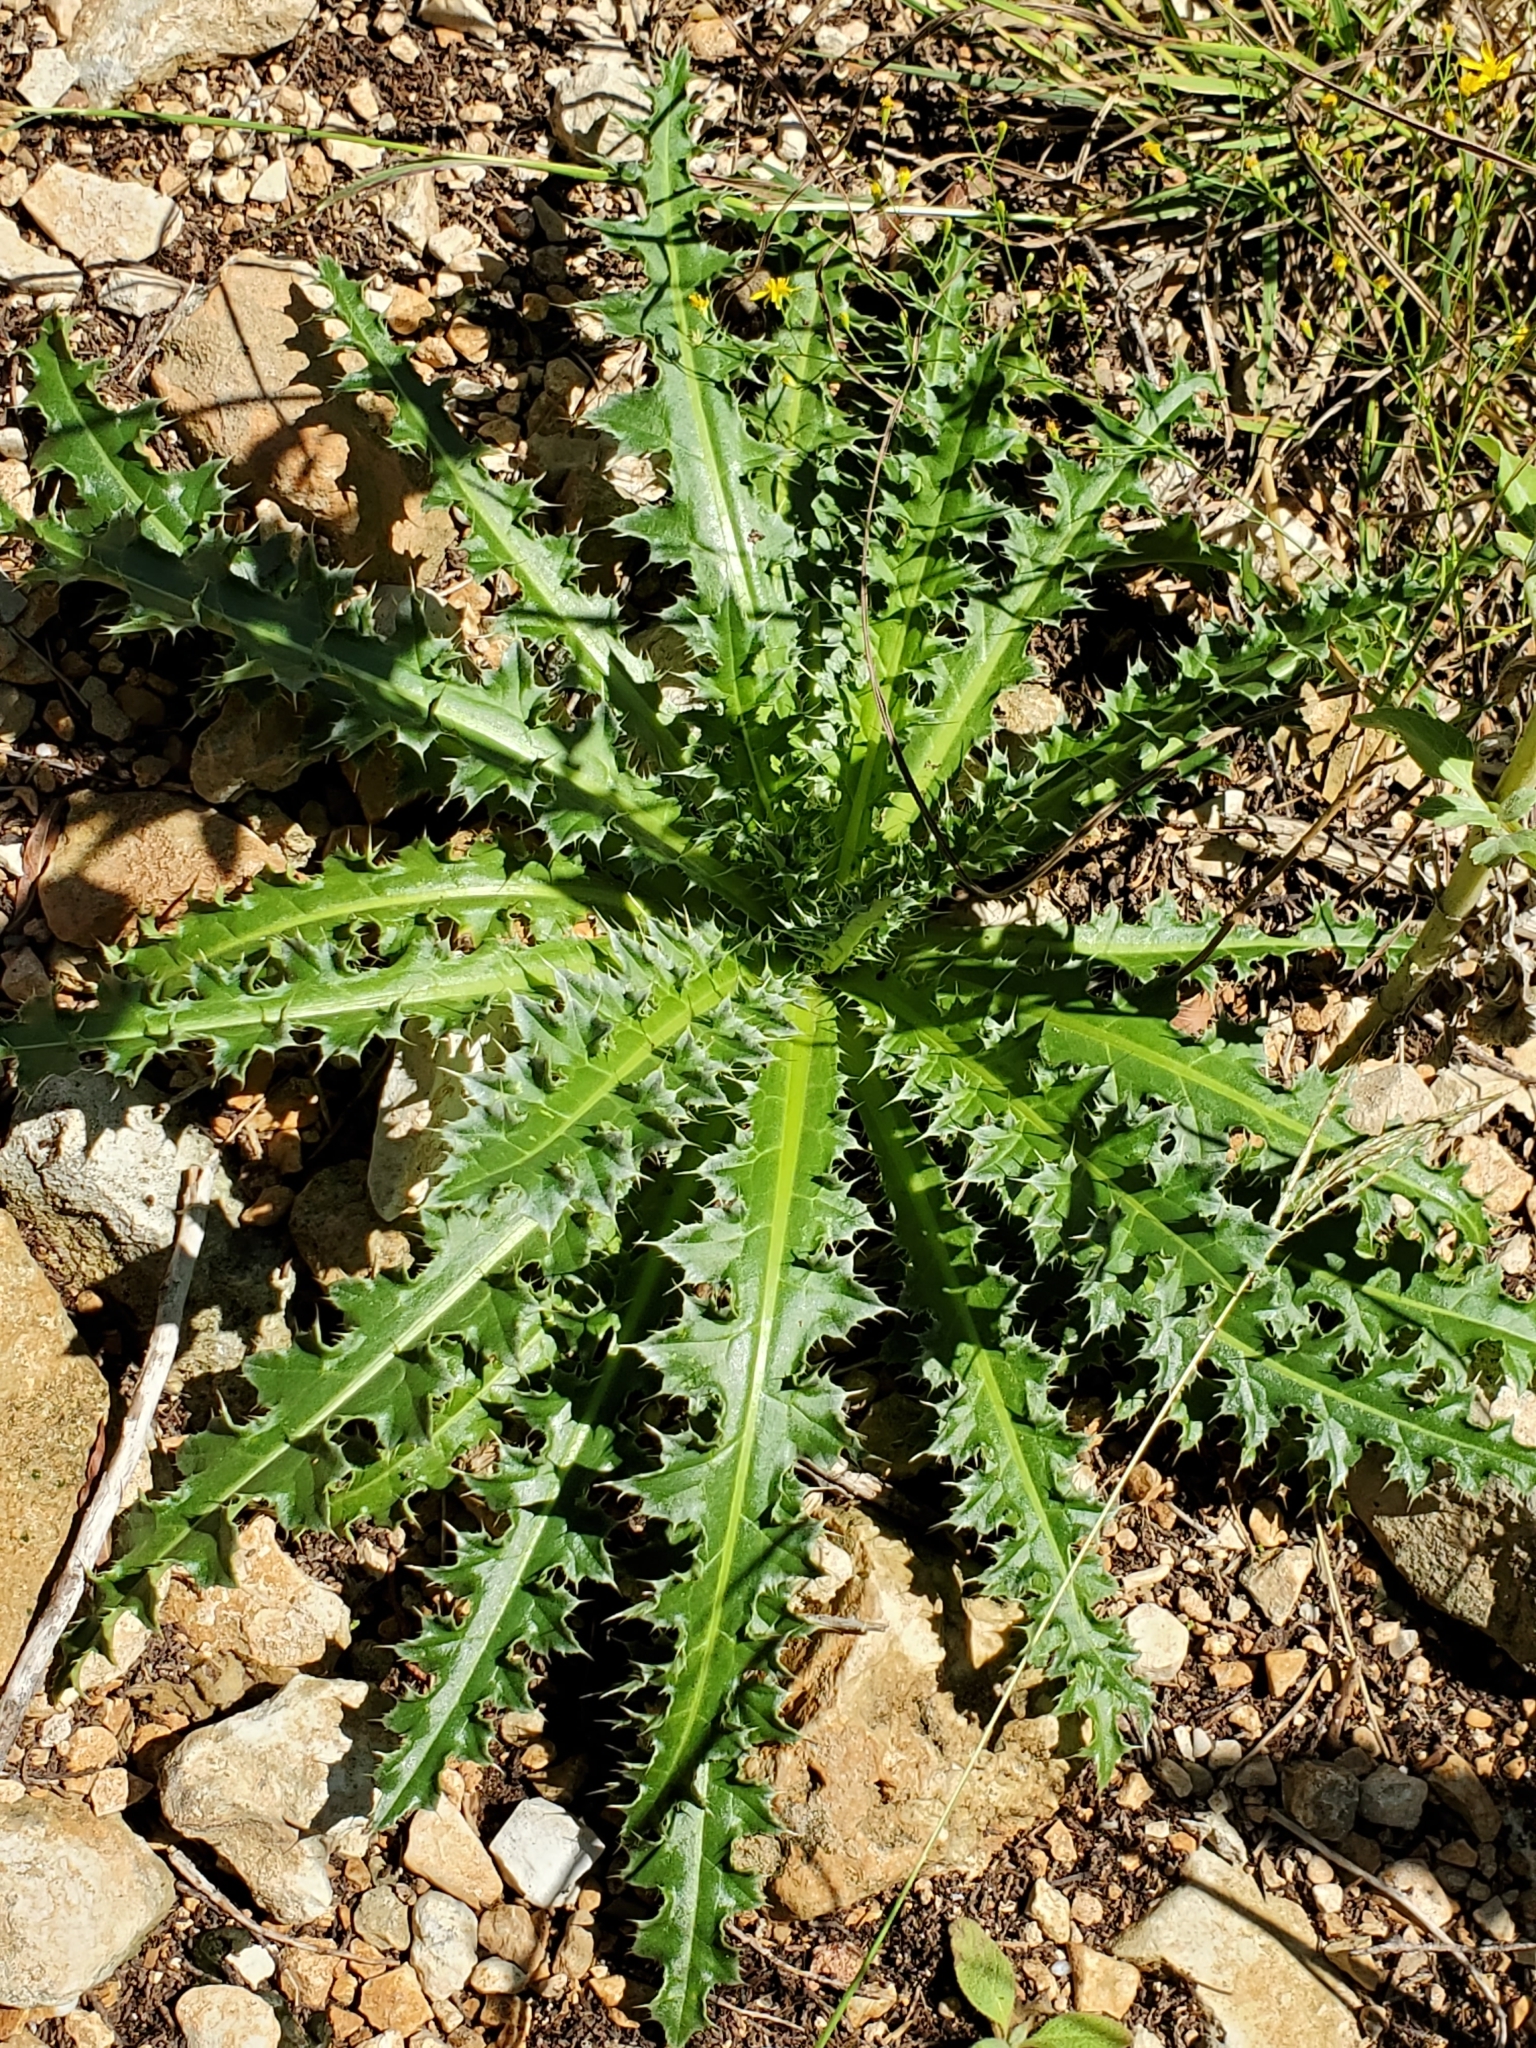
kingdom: Plantae
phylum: Tracheophyta
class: Magnoliopsida
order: Asterales
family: Asteraceae
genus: Carduus
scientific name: Carduus nutans
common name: Musk thistle
